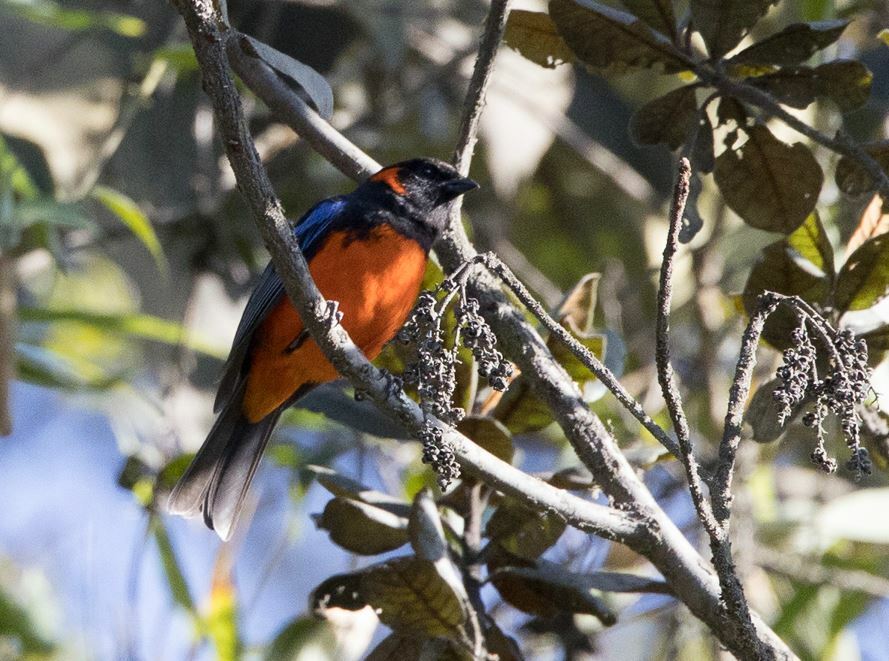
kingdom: Animalia
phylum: Chordata
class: Aves
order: Passeriformes
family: Thraupidae
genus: Anisognathus
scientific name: Anisognathus igniventris
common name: Scarlet-bellied mountain tanager
